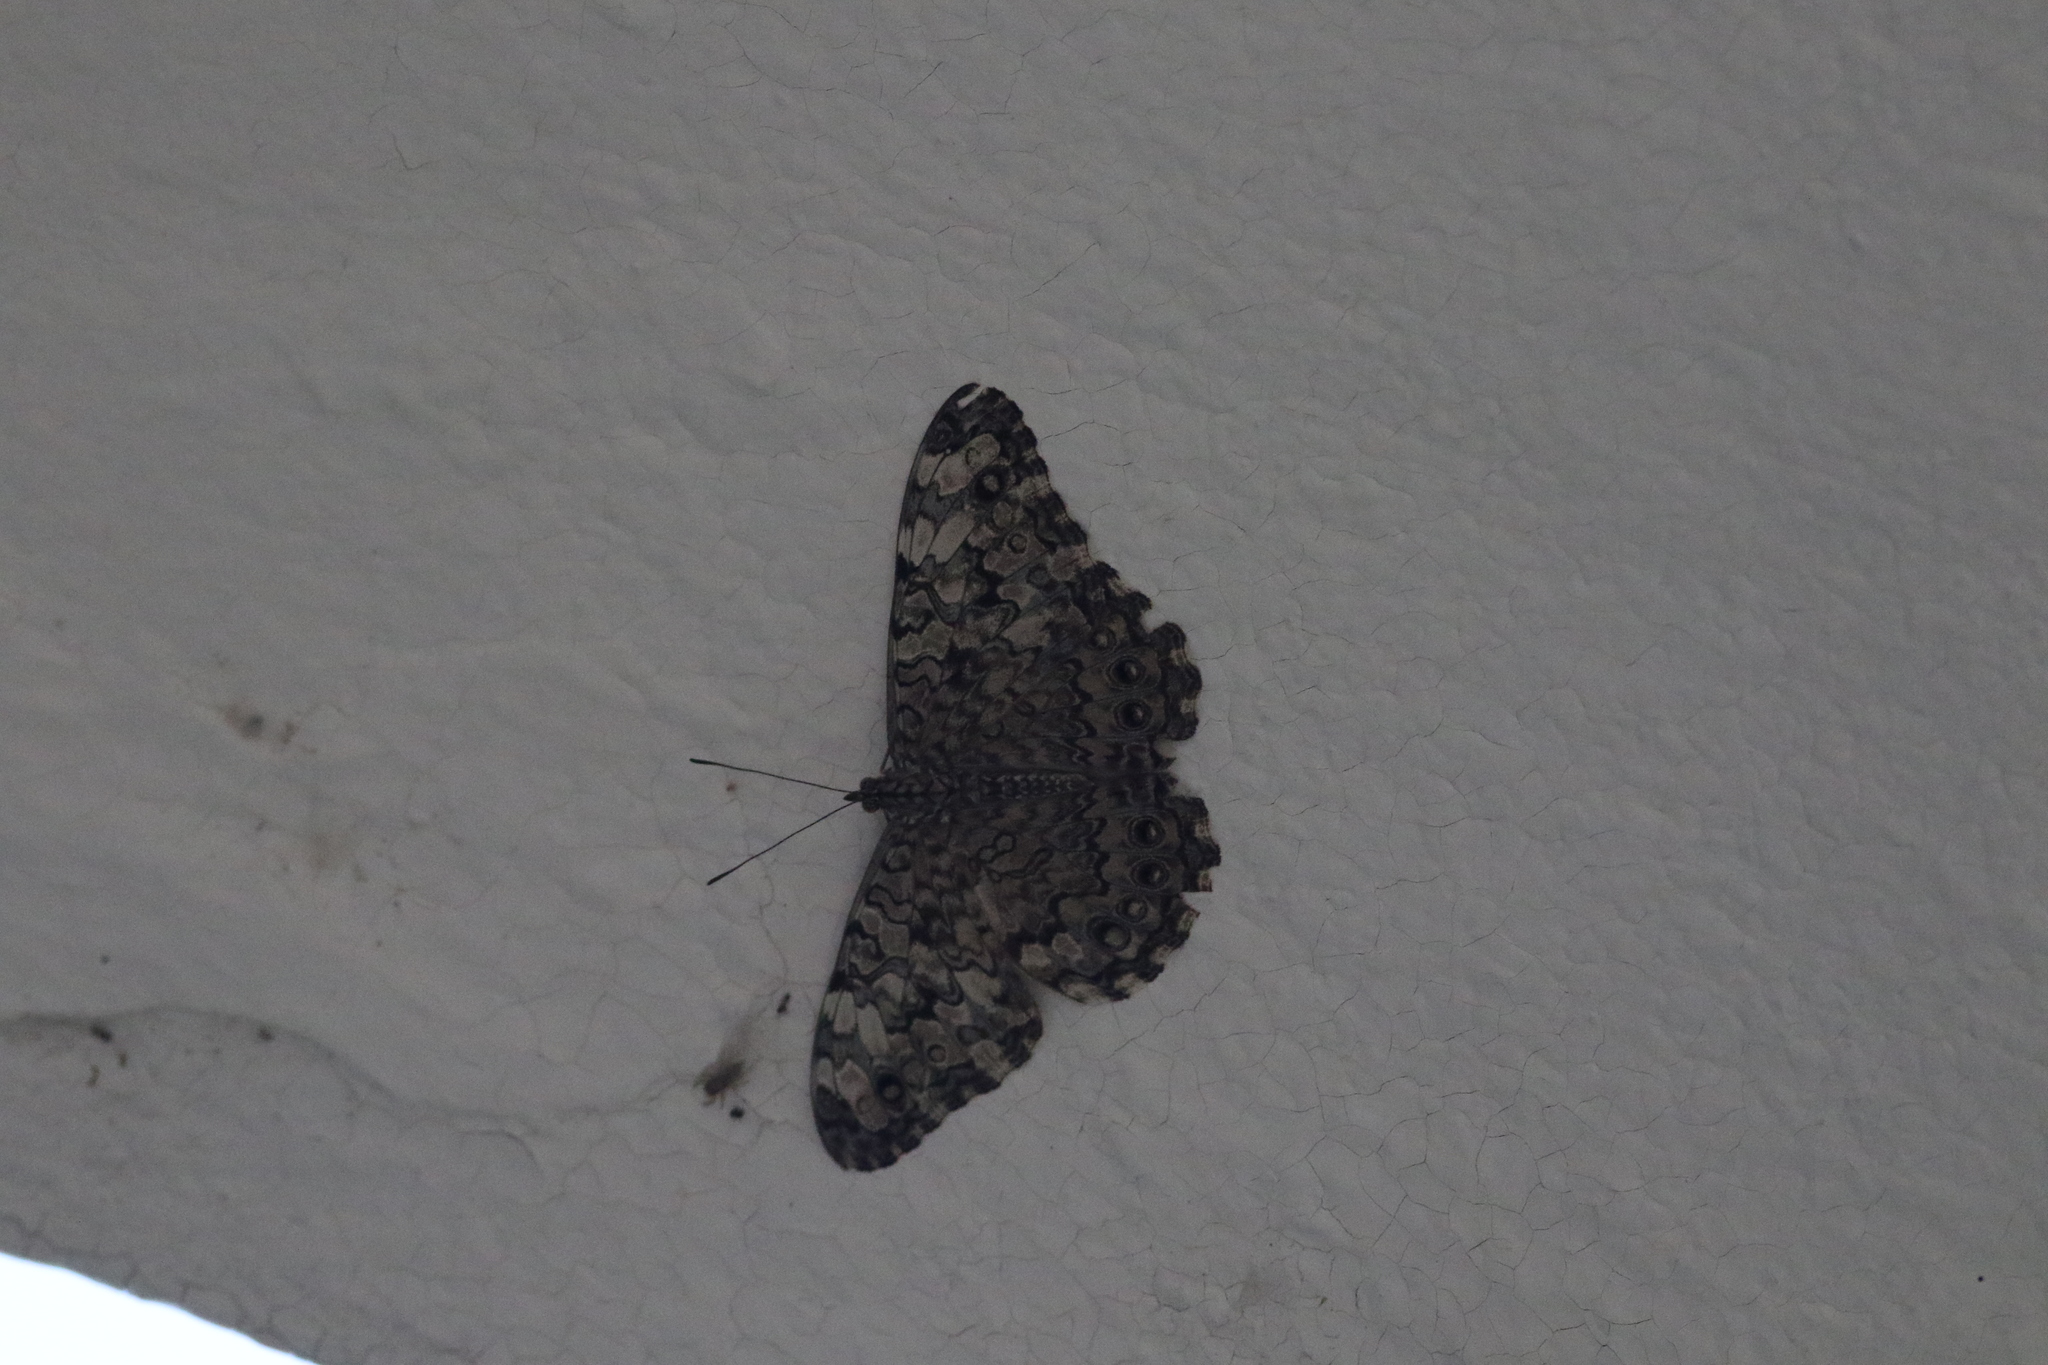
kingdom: Animalia
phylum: Arthropoda
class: Insecta
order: Lepidoptera
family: Nymphalidae
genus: Hamadryas
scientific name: Hamadryas februa
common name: Gray cracker
